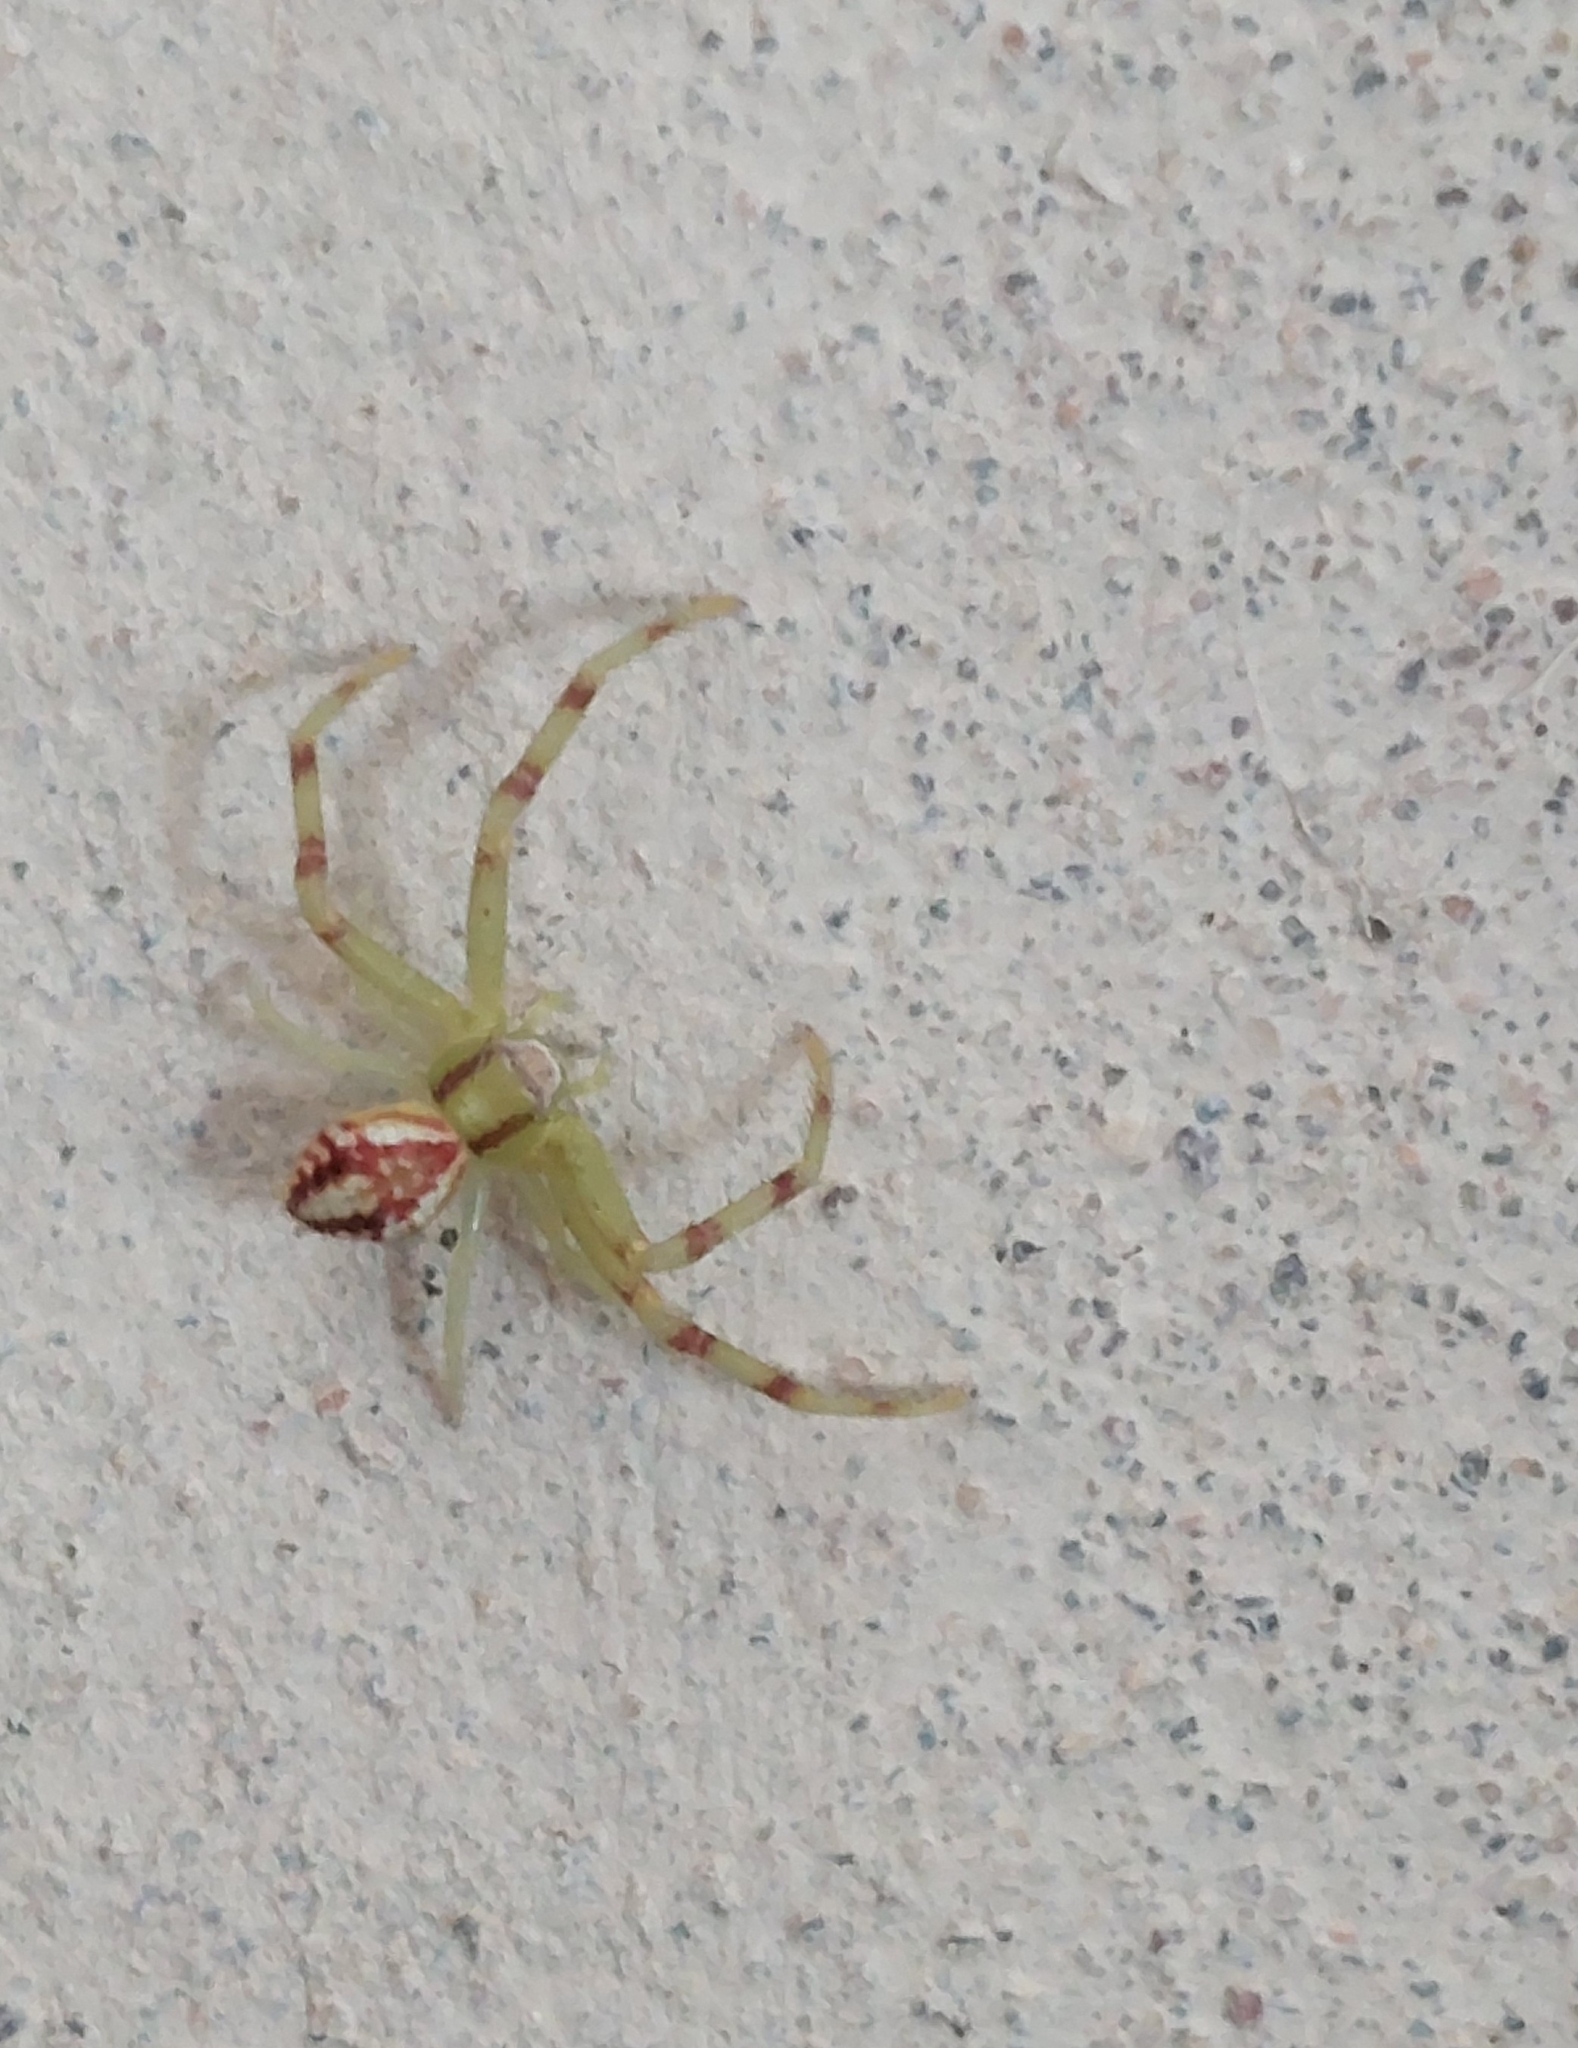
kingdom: Animalia
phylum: Arthropoda
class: Arachnida
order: Araneae
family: Thomisidae
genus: Misumenops
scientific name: Misumenops
